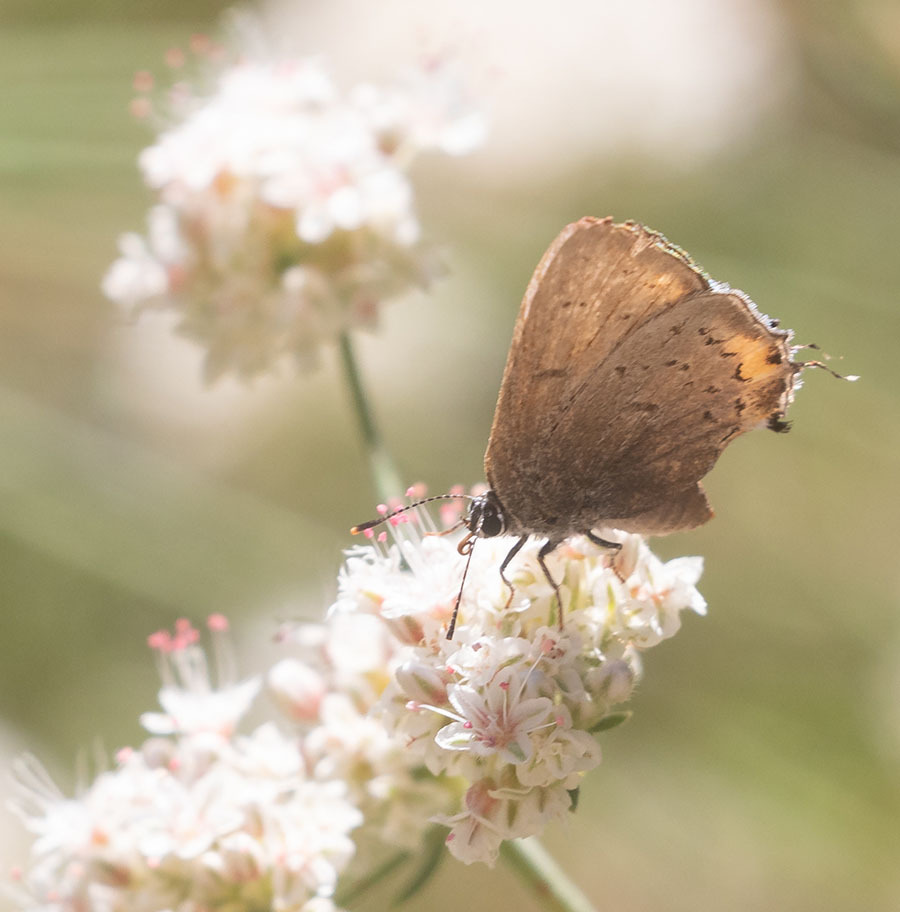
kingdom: Animalia
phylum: Arthropoda
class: Insecta
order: Lepidoptera
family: Lycaenidae
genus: Strymon
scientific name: Strymon acadica
